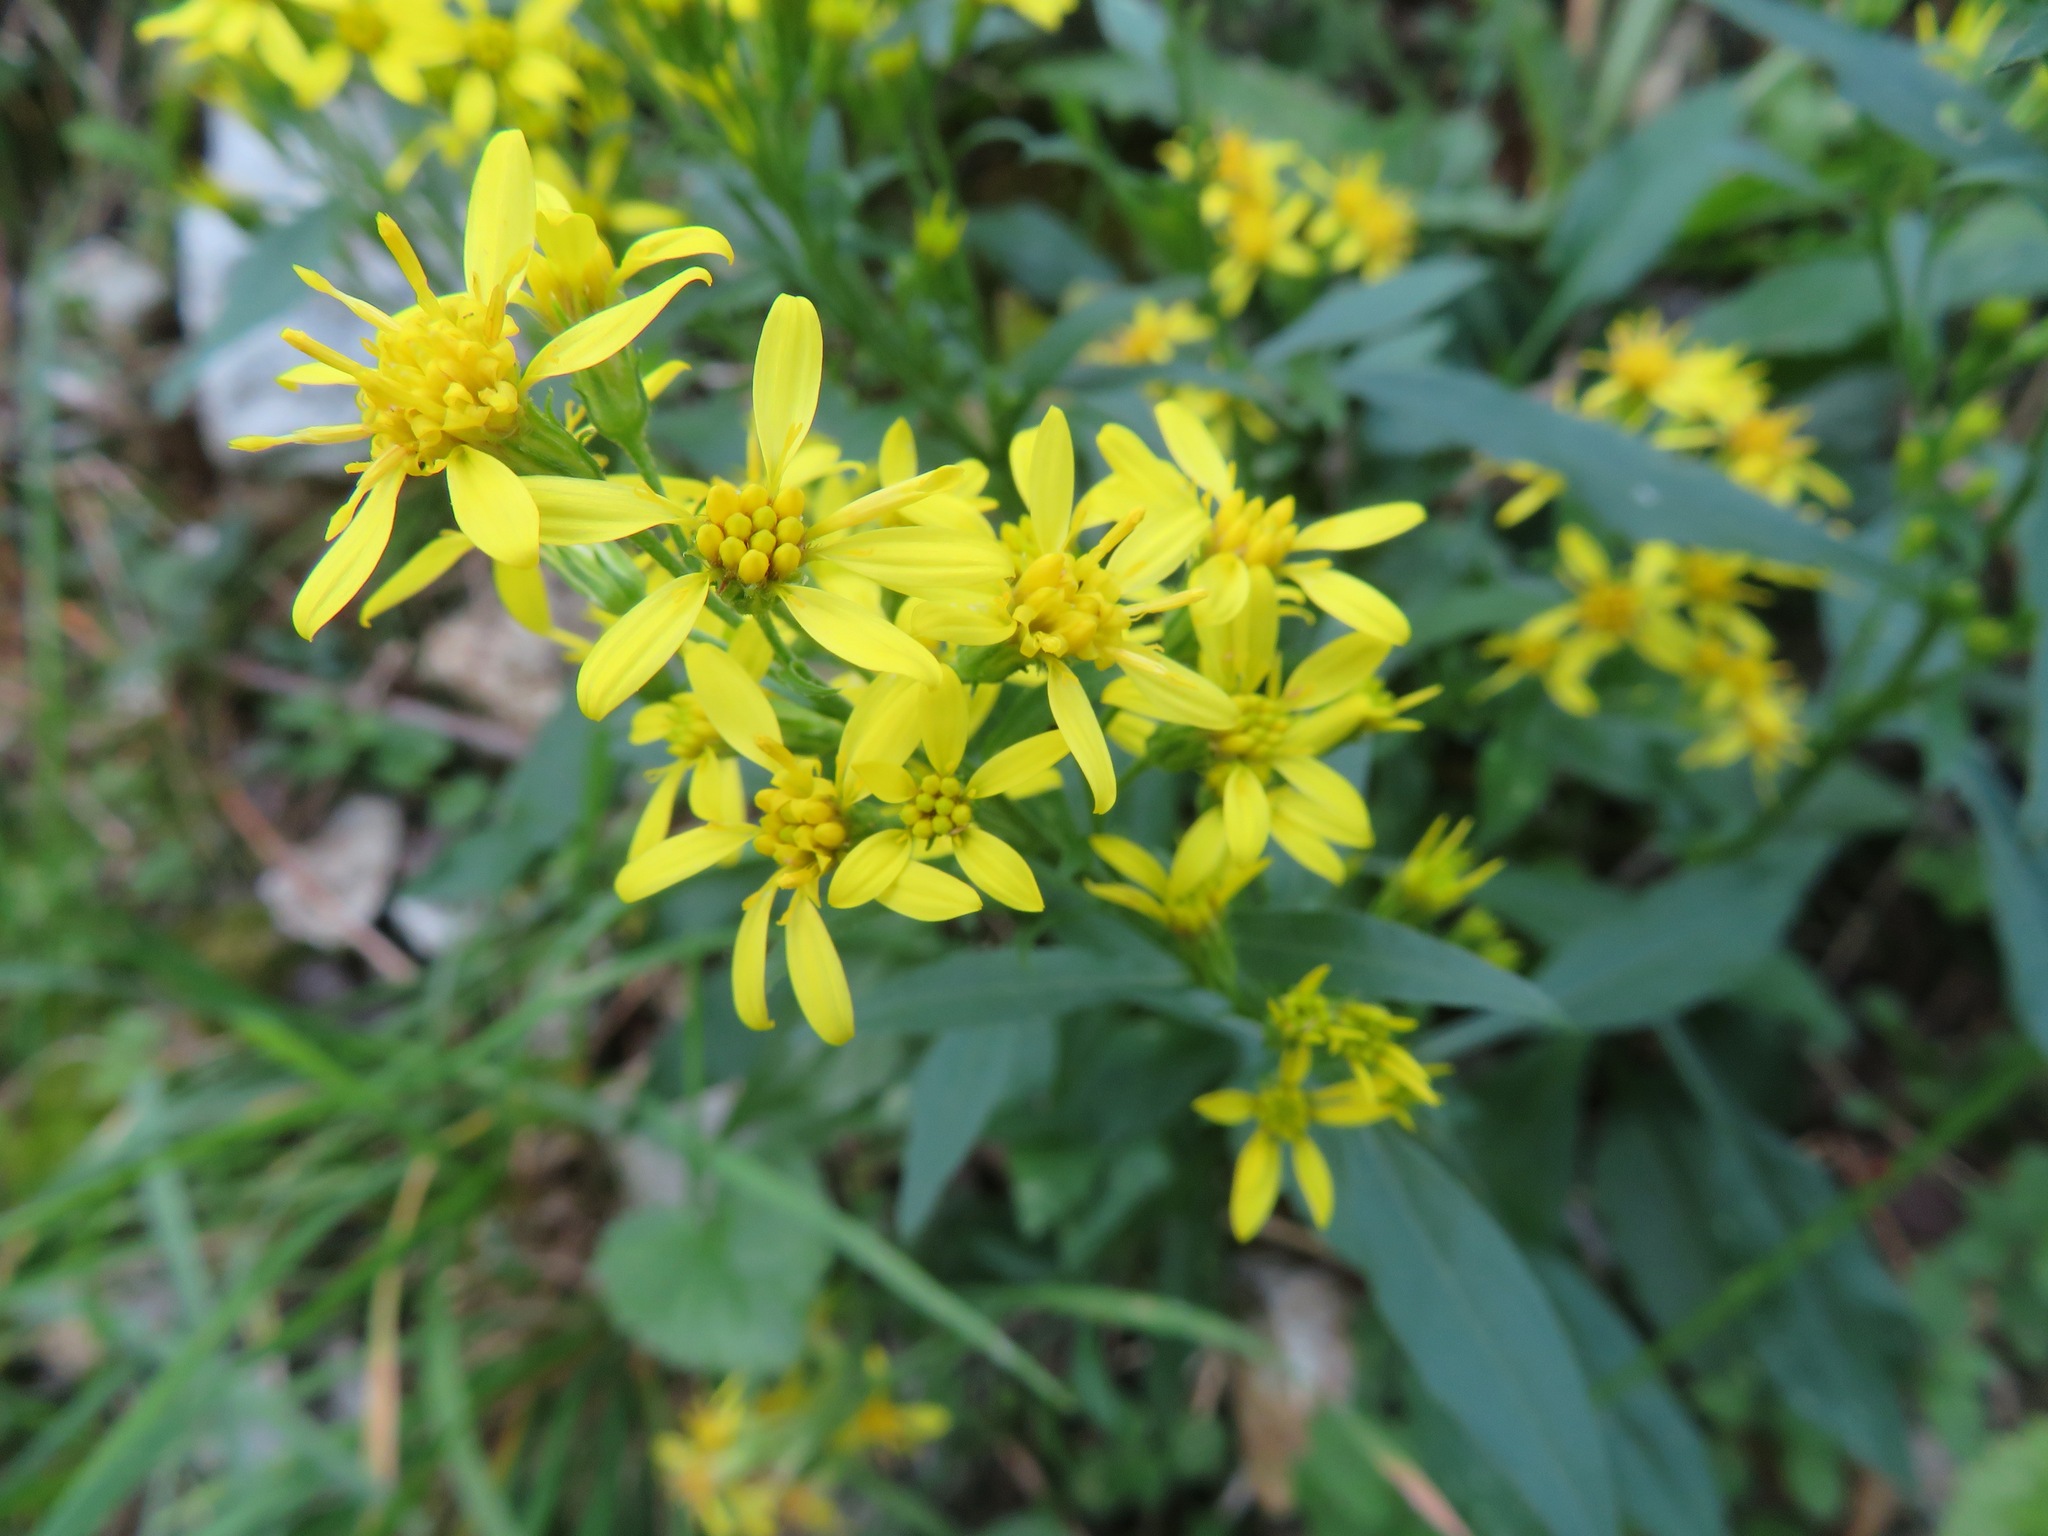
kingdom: Plantae
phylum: Tracheophyta
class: Magnoliopsida
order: Asterales
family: Asteraceae
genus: Solidago
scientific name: Solidago virgaurea
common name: Goldenrod
